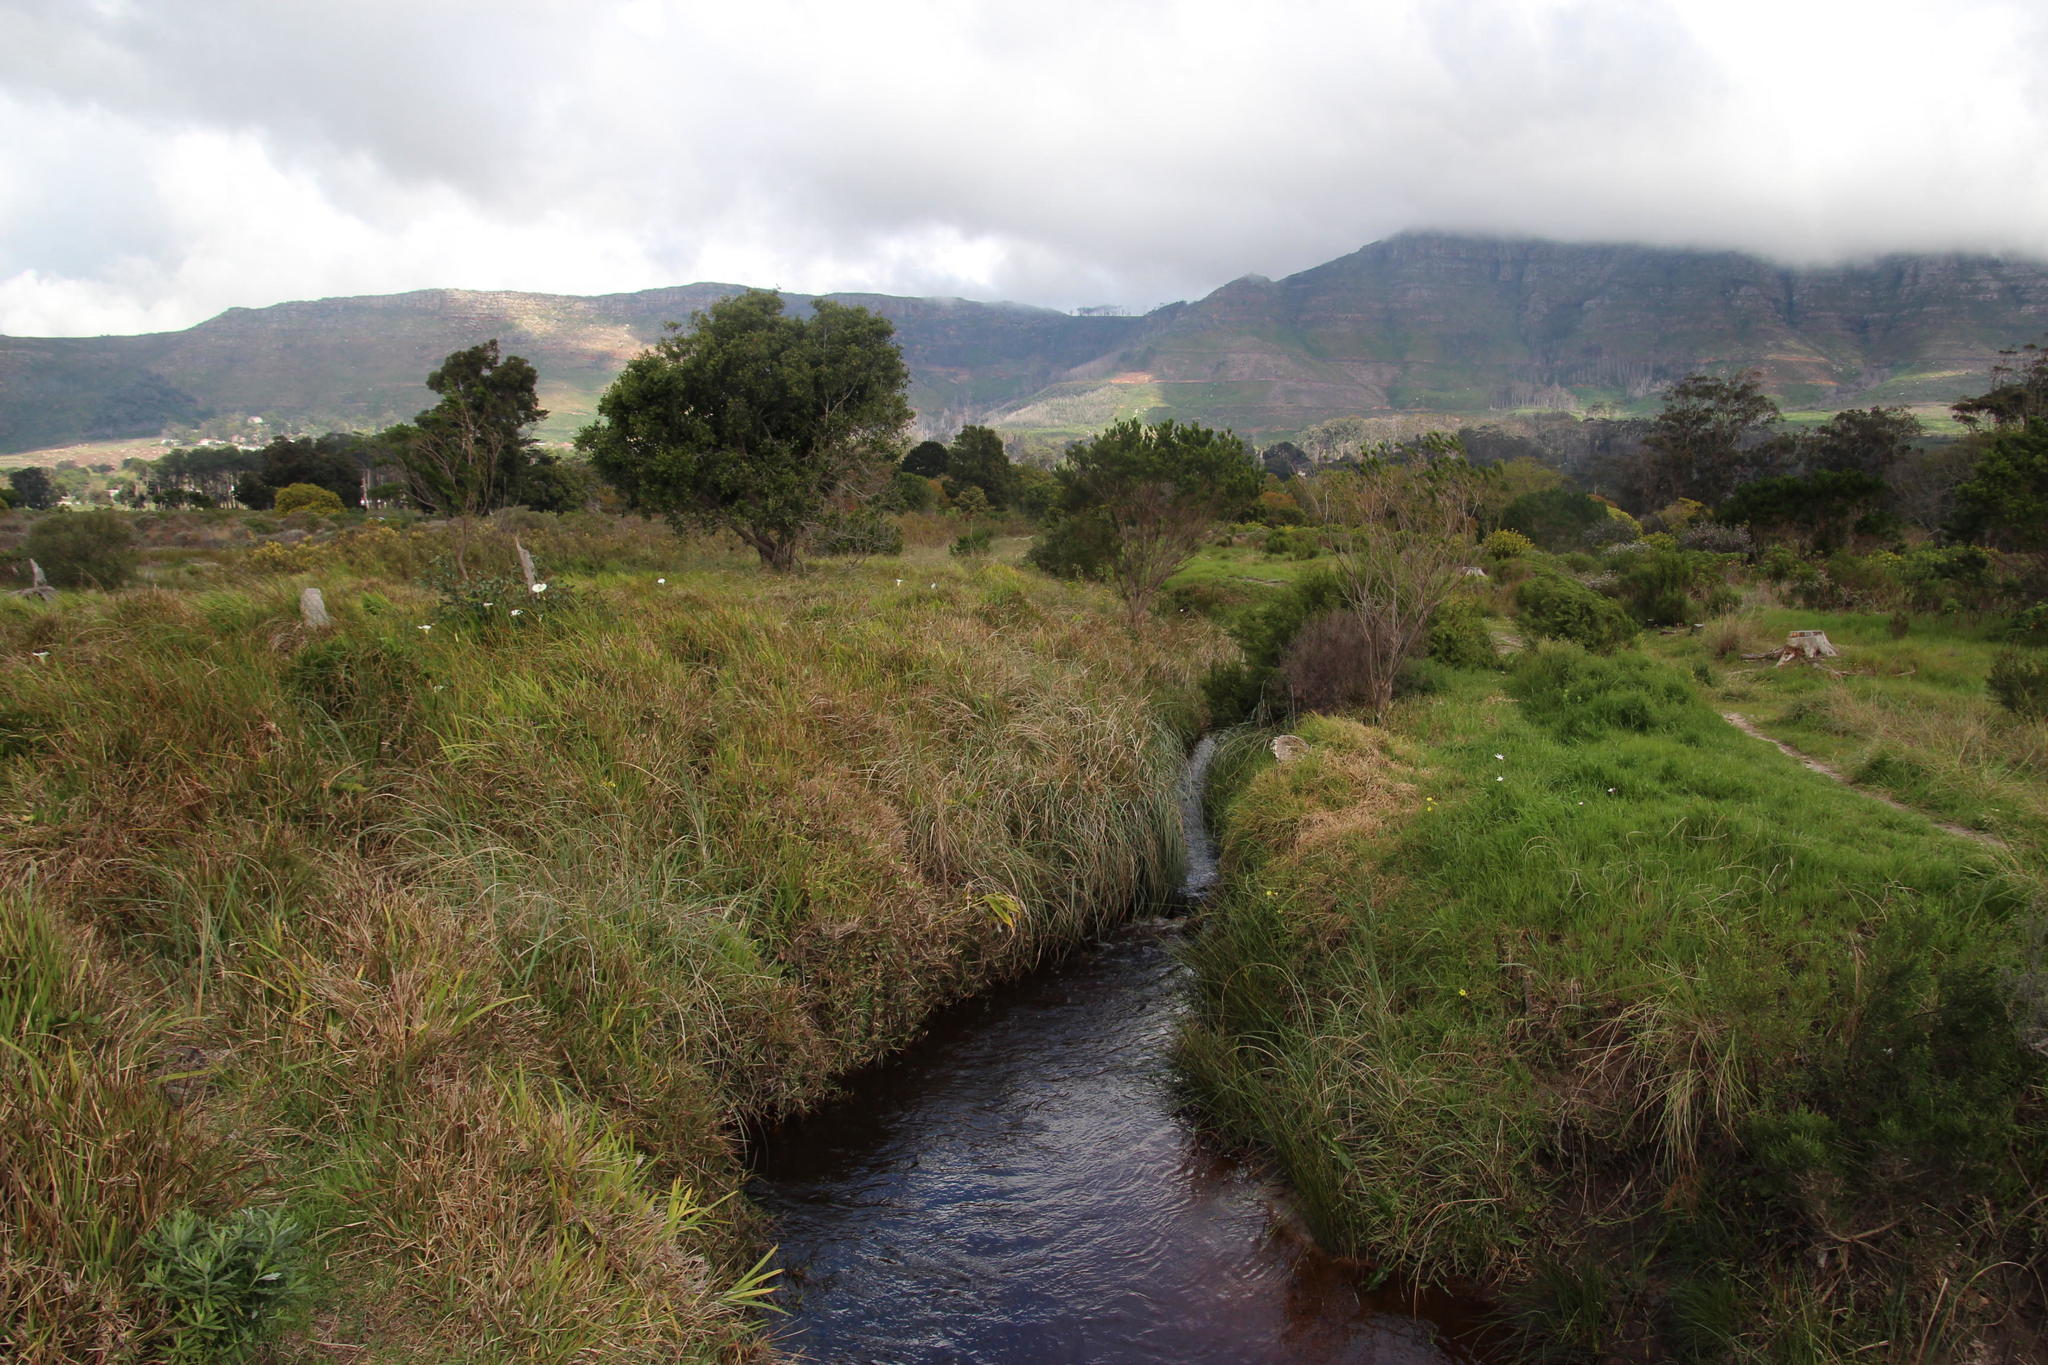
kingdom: Plantae
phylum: Tracheophyta
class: Liliopsida
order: Zingiberales
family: Zingiberaceae
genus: Hedychium
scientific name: Hedychium coronarium
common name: White garland-lily
